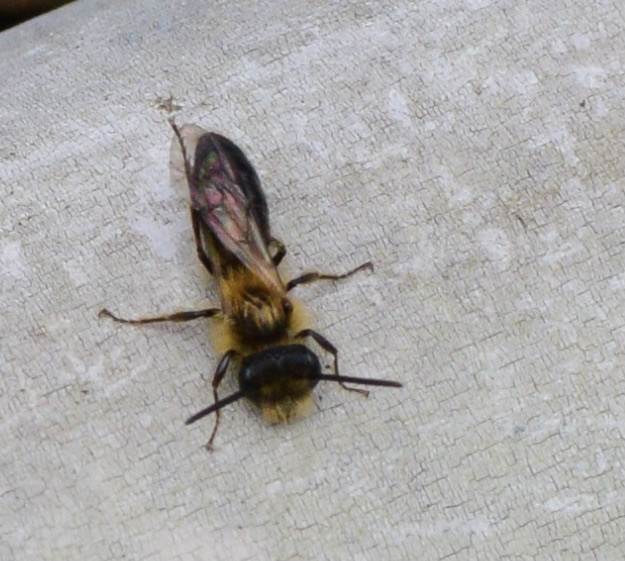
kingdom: Animalia
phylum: Arthropoda
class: Insecta
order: Hymenoptera
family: Andrenidae
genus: Andrena
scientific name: Andrena milwaukeensis
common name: Milwaukee mining bee
